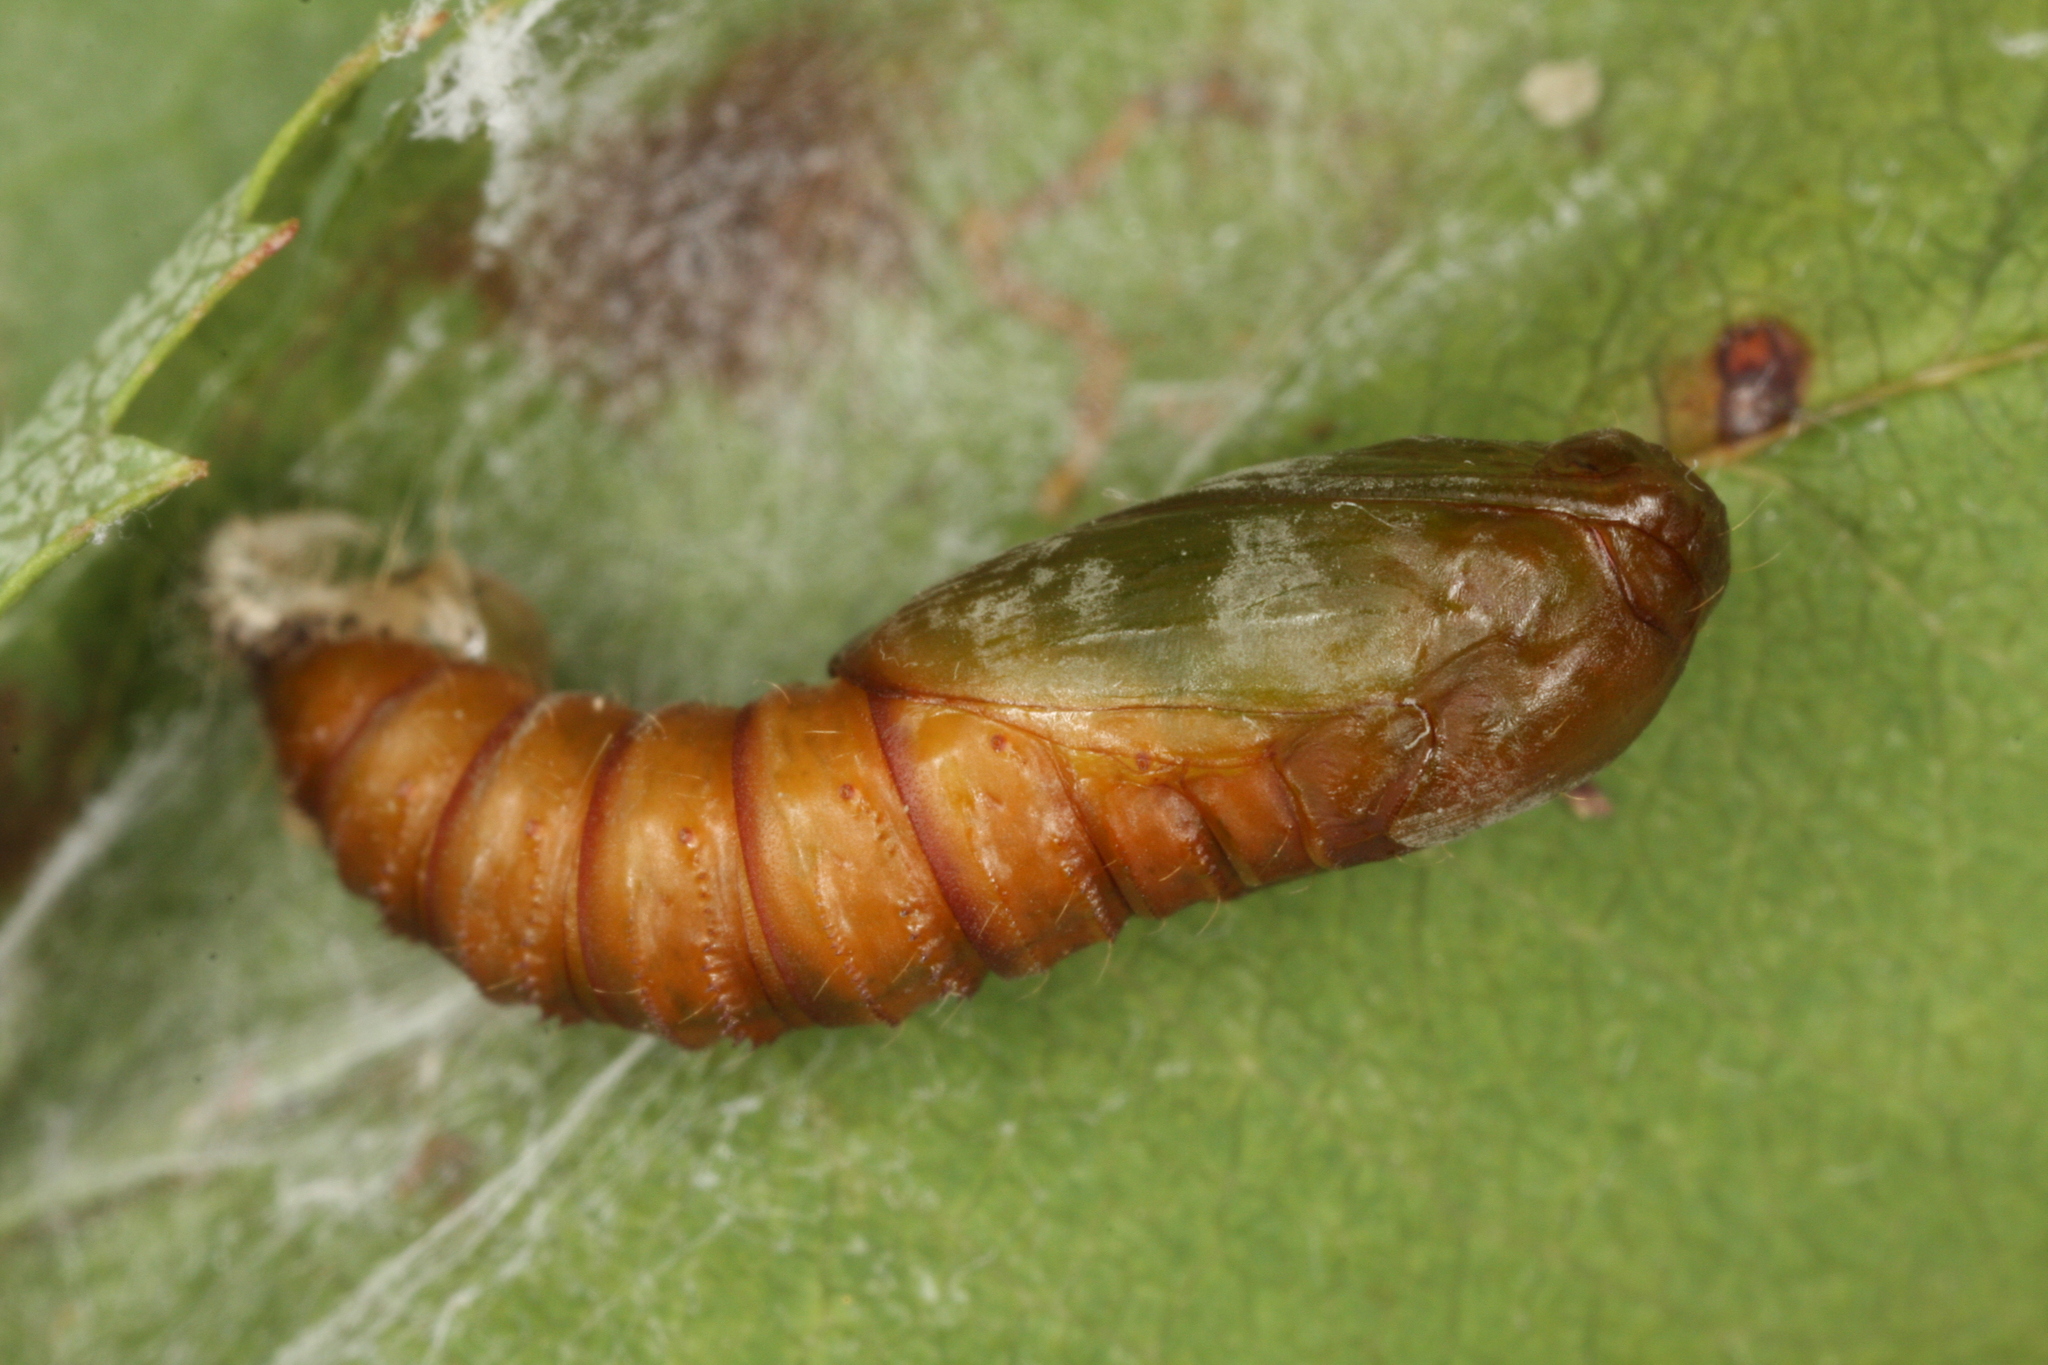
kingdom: Animalia
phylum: Arthropoda
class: Insecta
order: Lepidoptera
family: Tortricidae
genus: Pandemis
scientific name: Pandemis corylana
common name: Chequered fruit-tree tortrix
